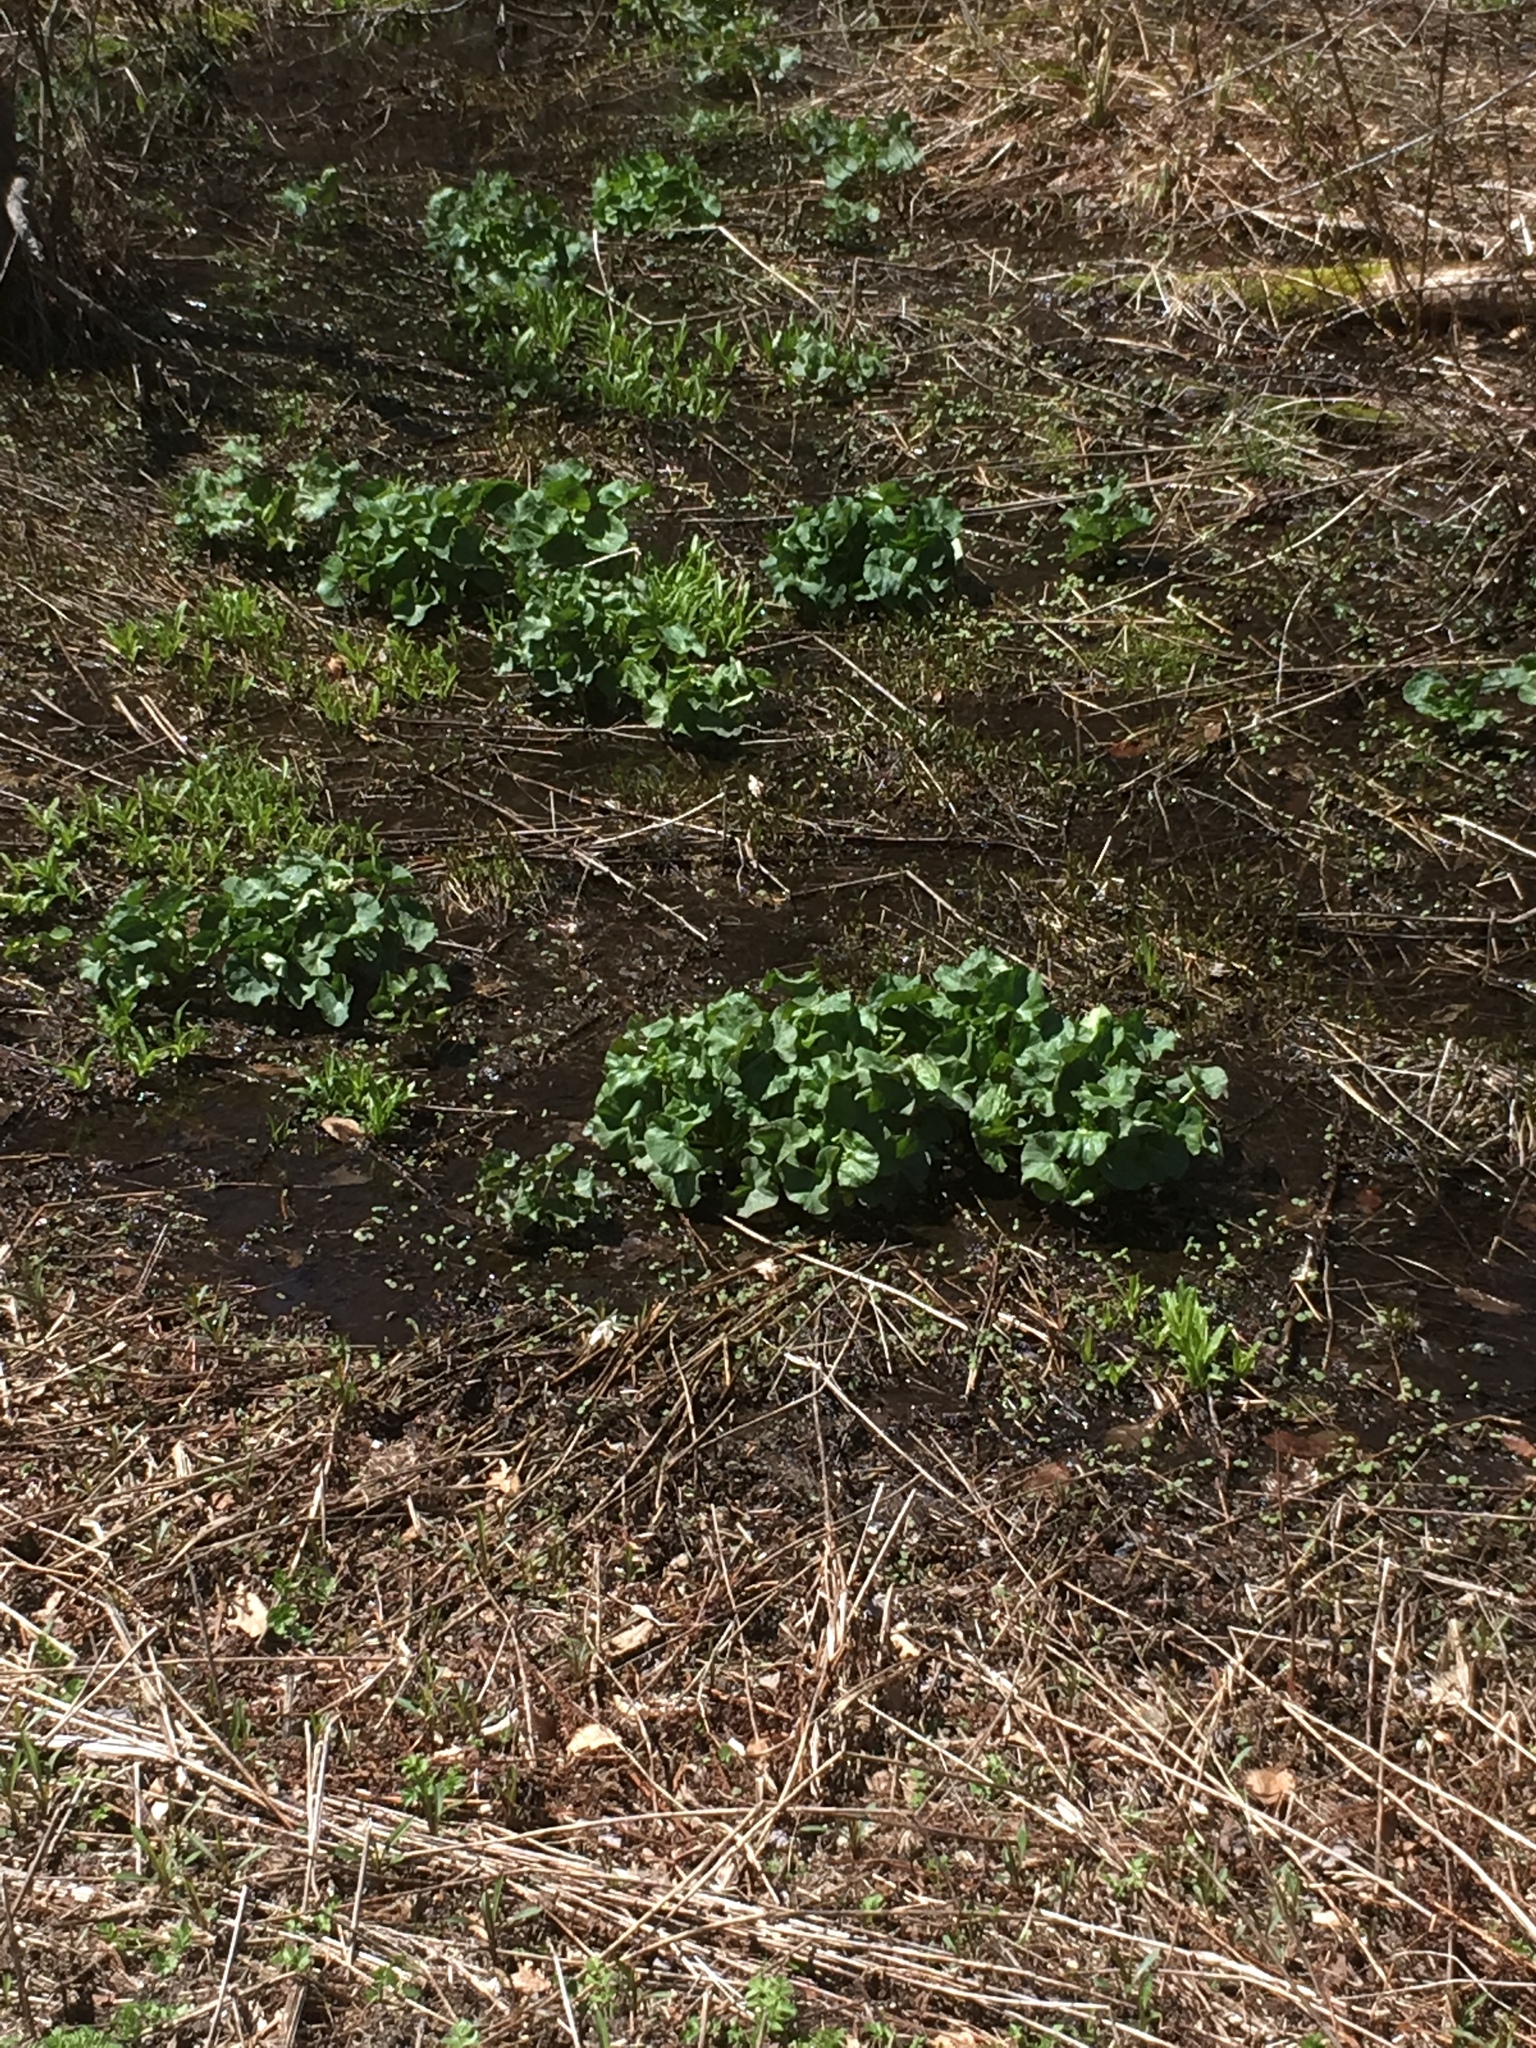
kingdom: Plantae
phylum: Tracheophyta
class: Magnoliopsida
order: Ranunculales
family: Ranunculaceae
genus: Caltha
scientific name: Caltha palustris
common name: Marsh marigold
